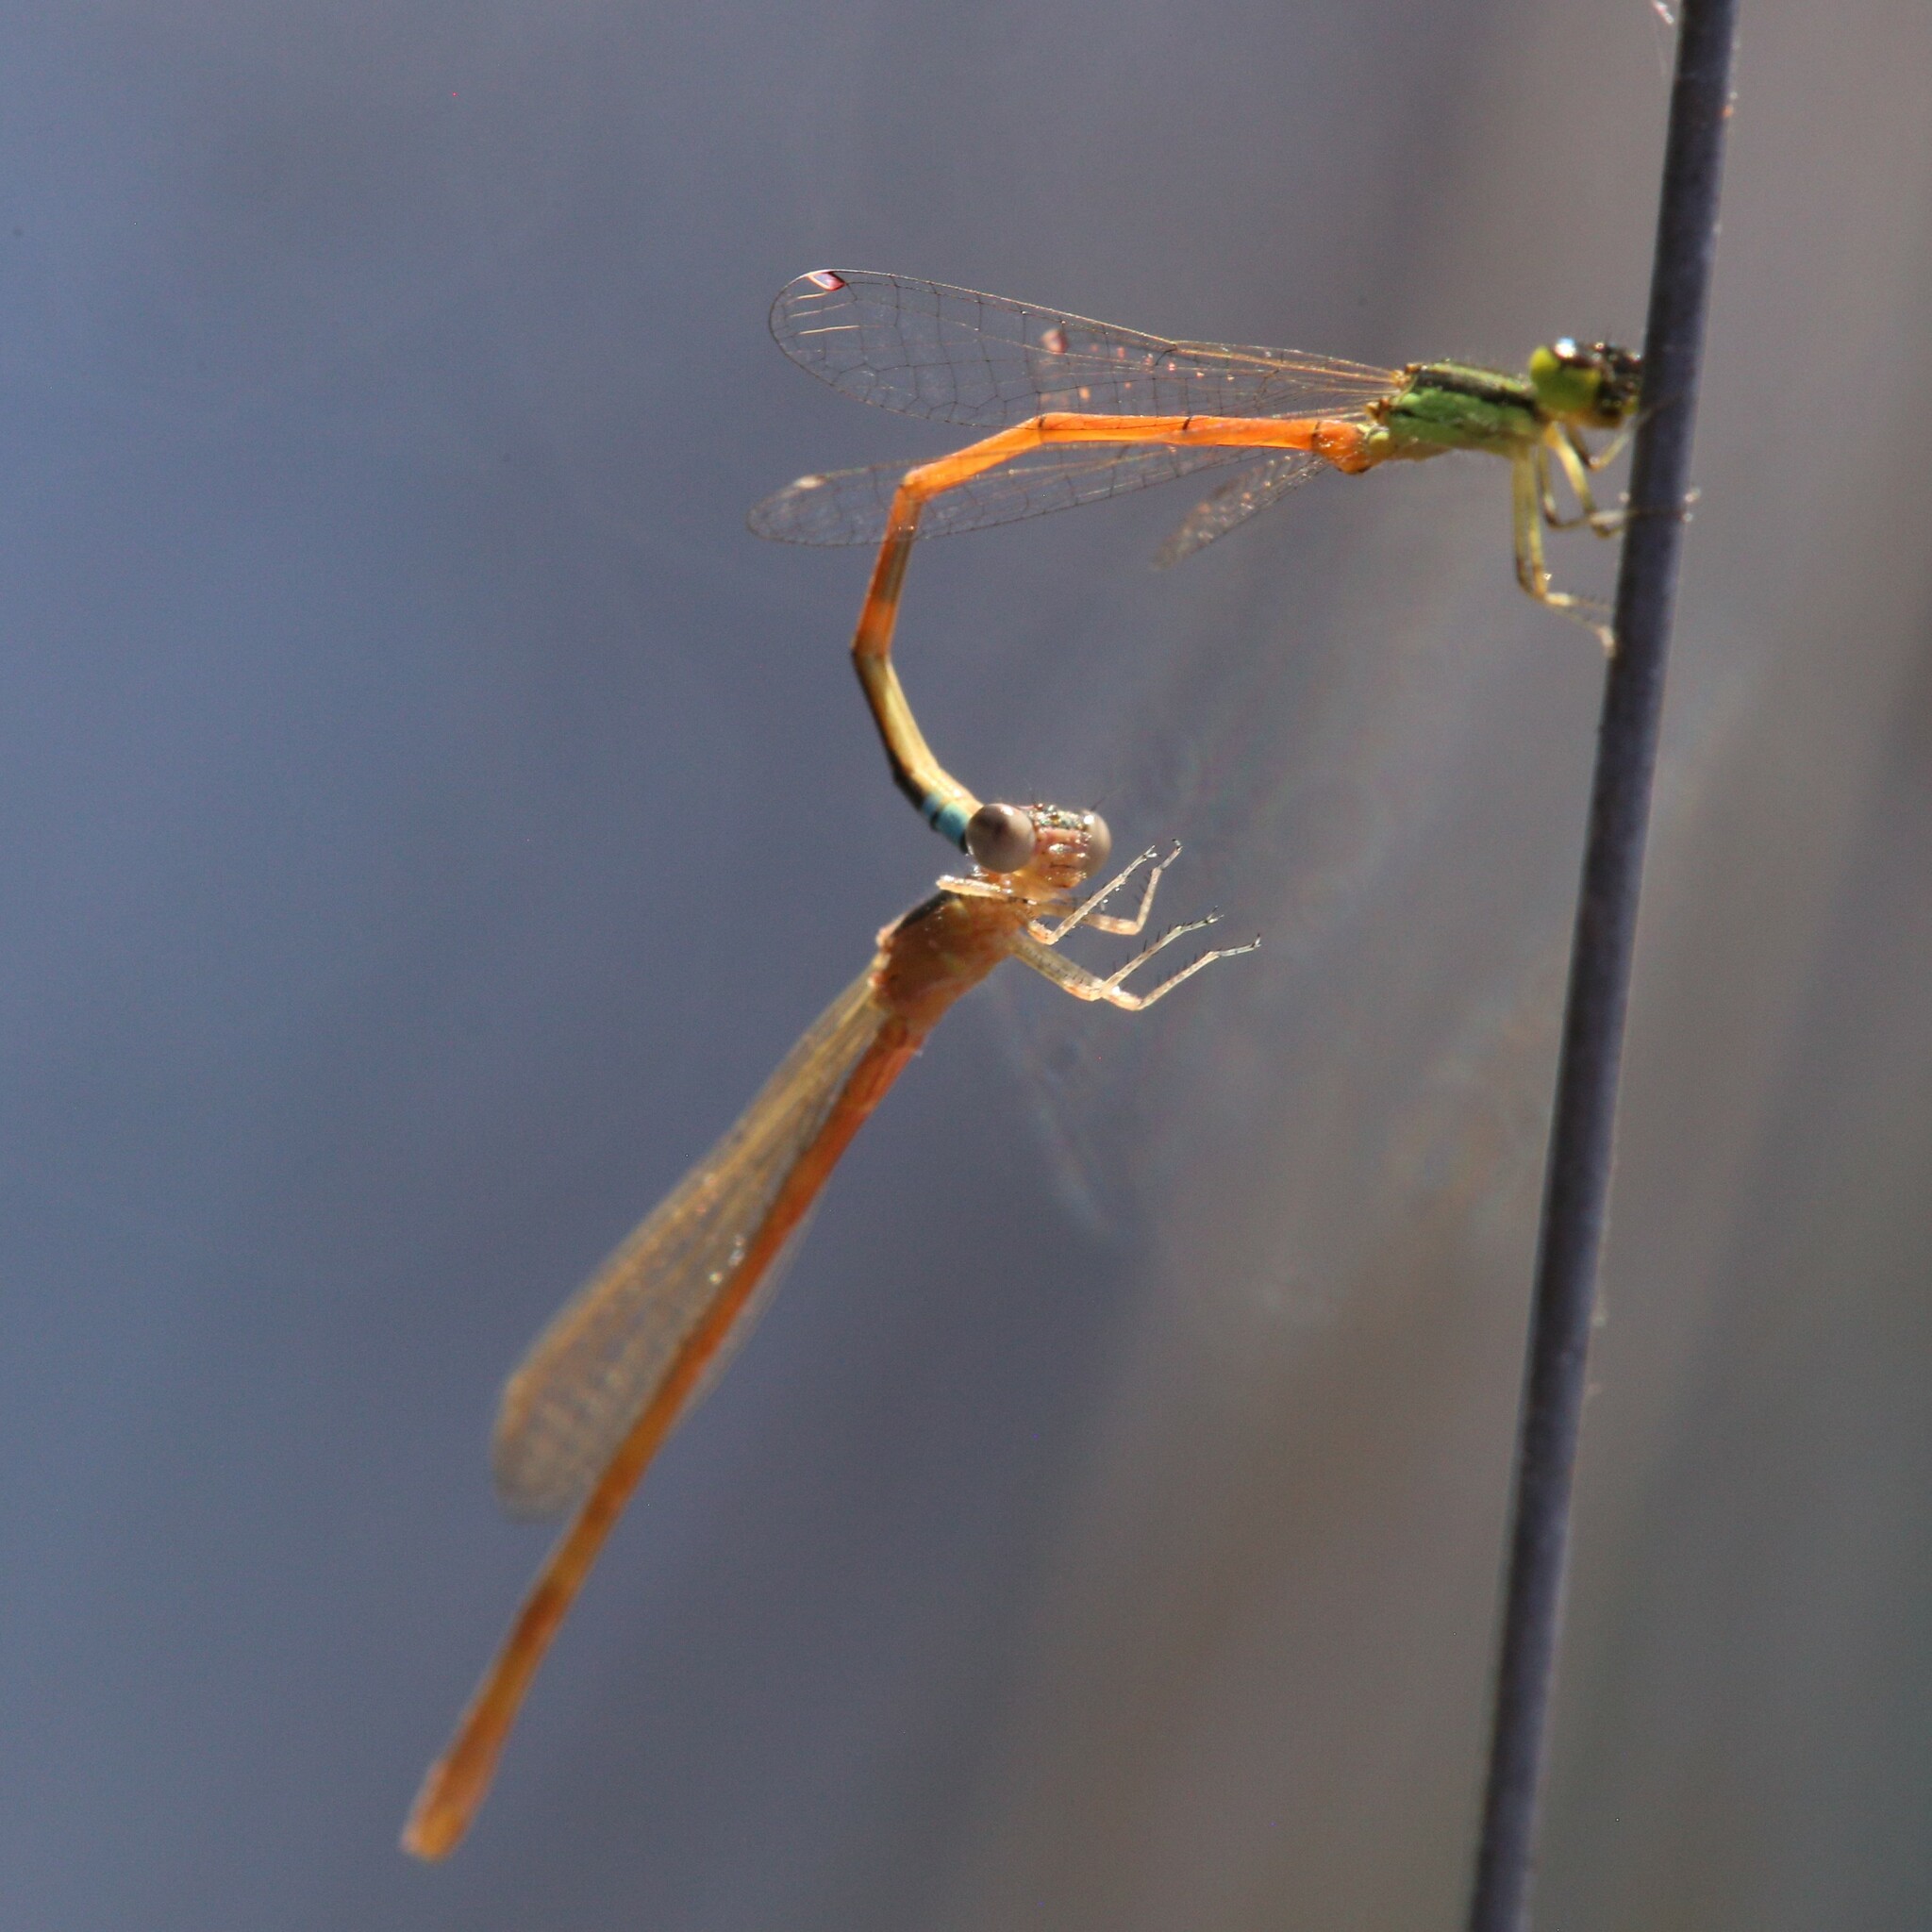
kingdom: Animalia
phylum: Arthropoda
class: Insecta
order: Odonata
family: Coenagrionidae
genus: Ischnura
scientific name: Ischnura aurora
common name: Gossamer damselfly
